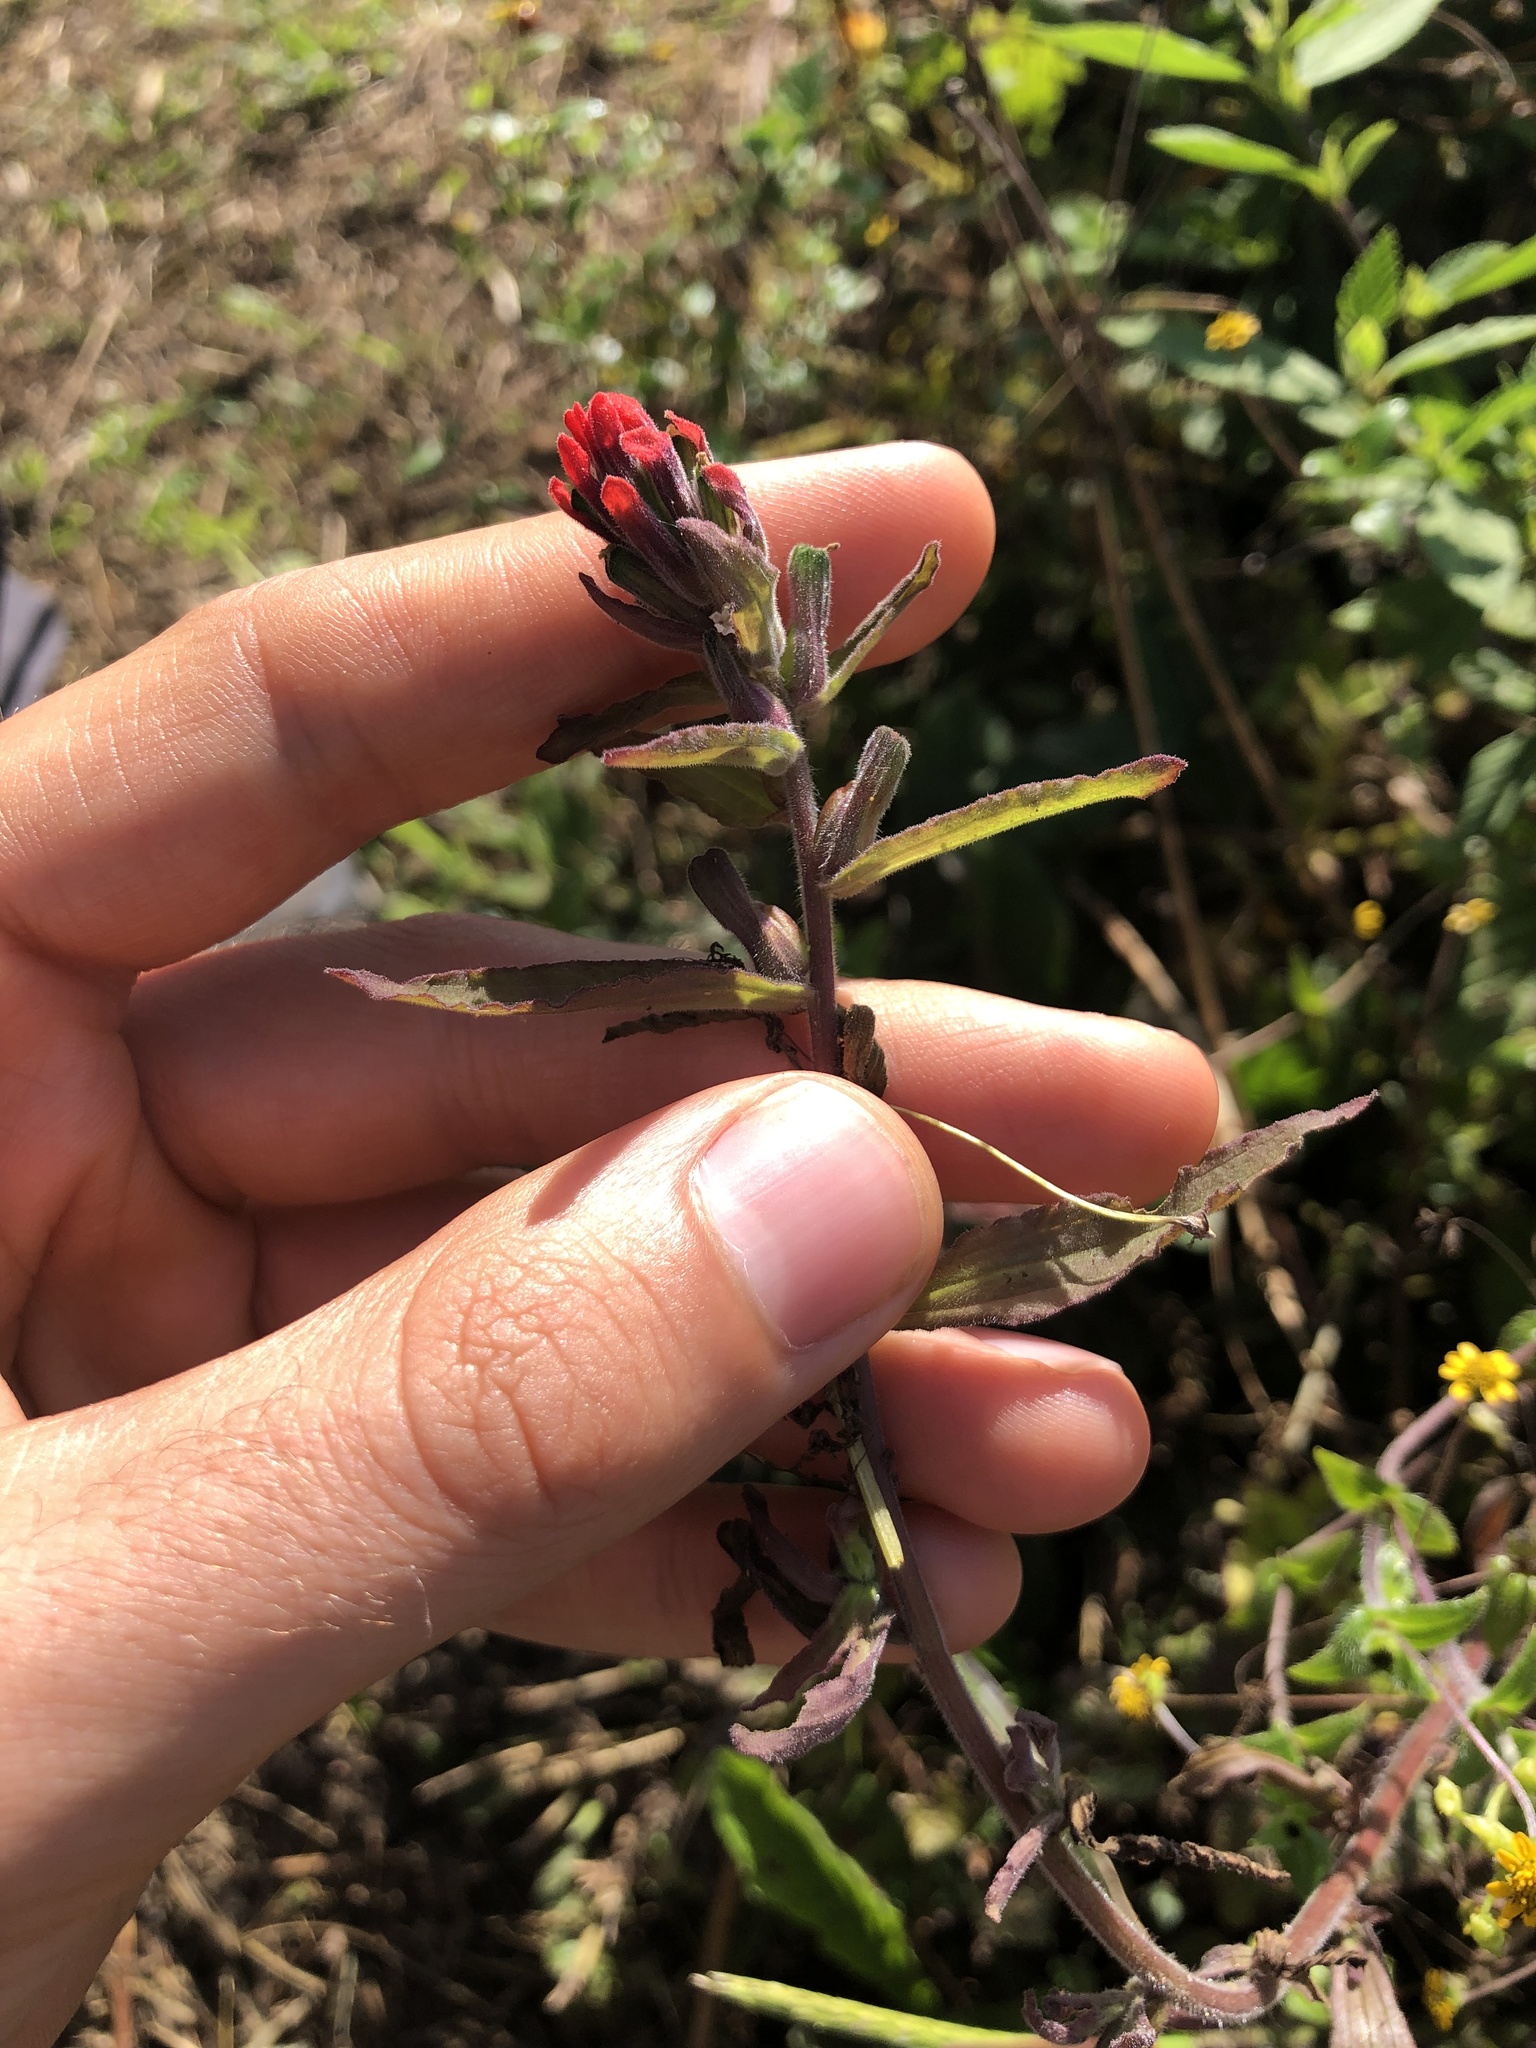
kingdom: Plantae
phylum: Tracheophyta
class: Magnoliopsida
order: Lamiales
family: Orobanchaceae
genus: Castilleja
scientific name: Castilleja arvensis
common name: Indian paintbrush
